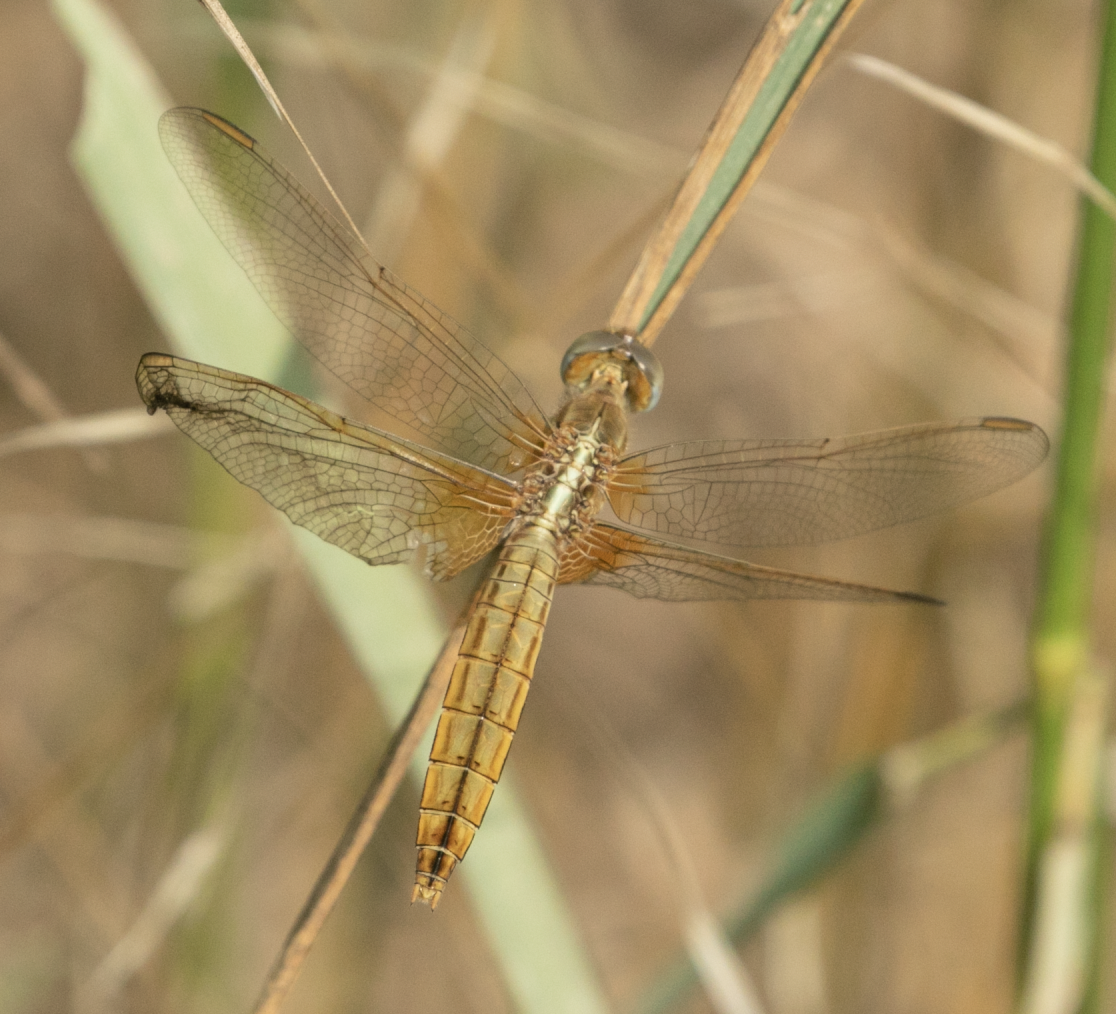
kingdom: Animalia
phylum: Arthropoda
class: Insecta
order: Odonata
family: Libellulidae
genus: Crocothemis
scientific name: Crocothemis erythraea
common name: Scarlet dragonfly
